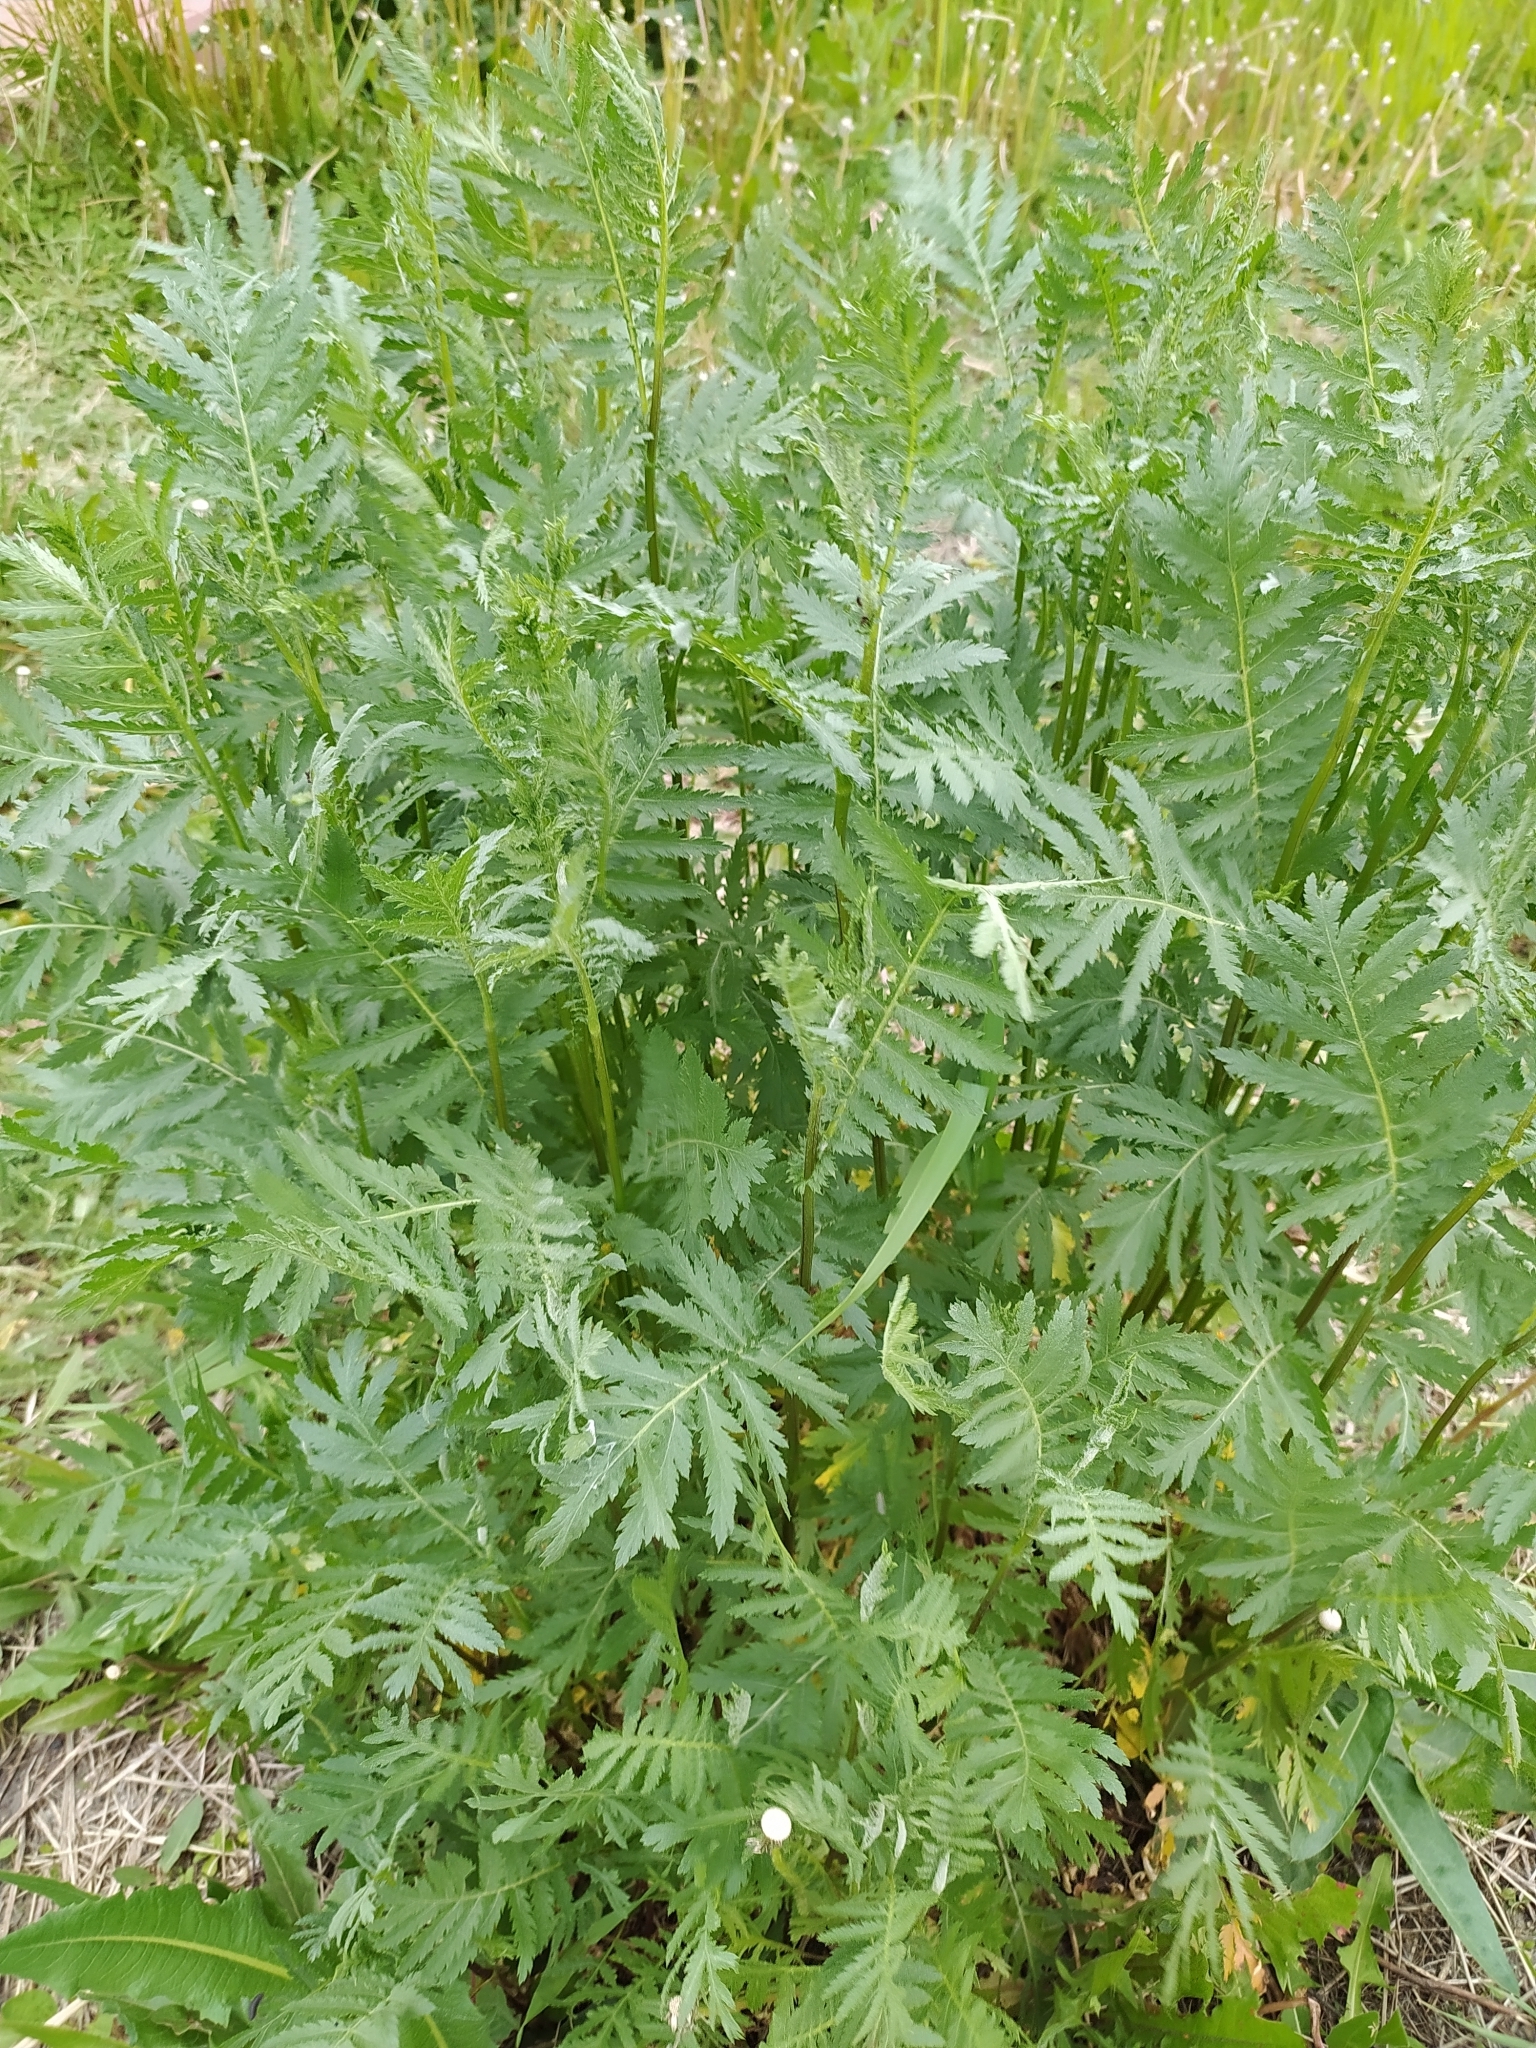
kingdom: Plantae
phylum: Tracheophyta
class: Magnoliopsida
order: Asterales
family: Asteraceae
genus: Tanacetum
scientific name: Tanacetum vulgare
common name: Common tansy
